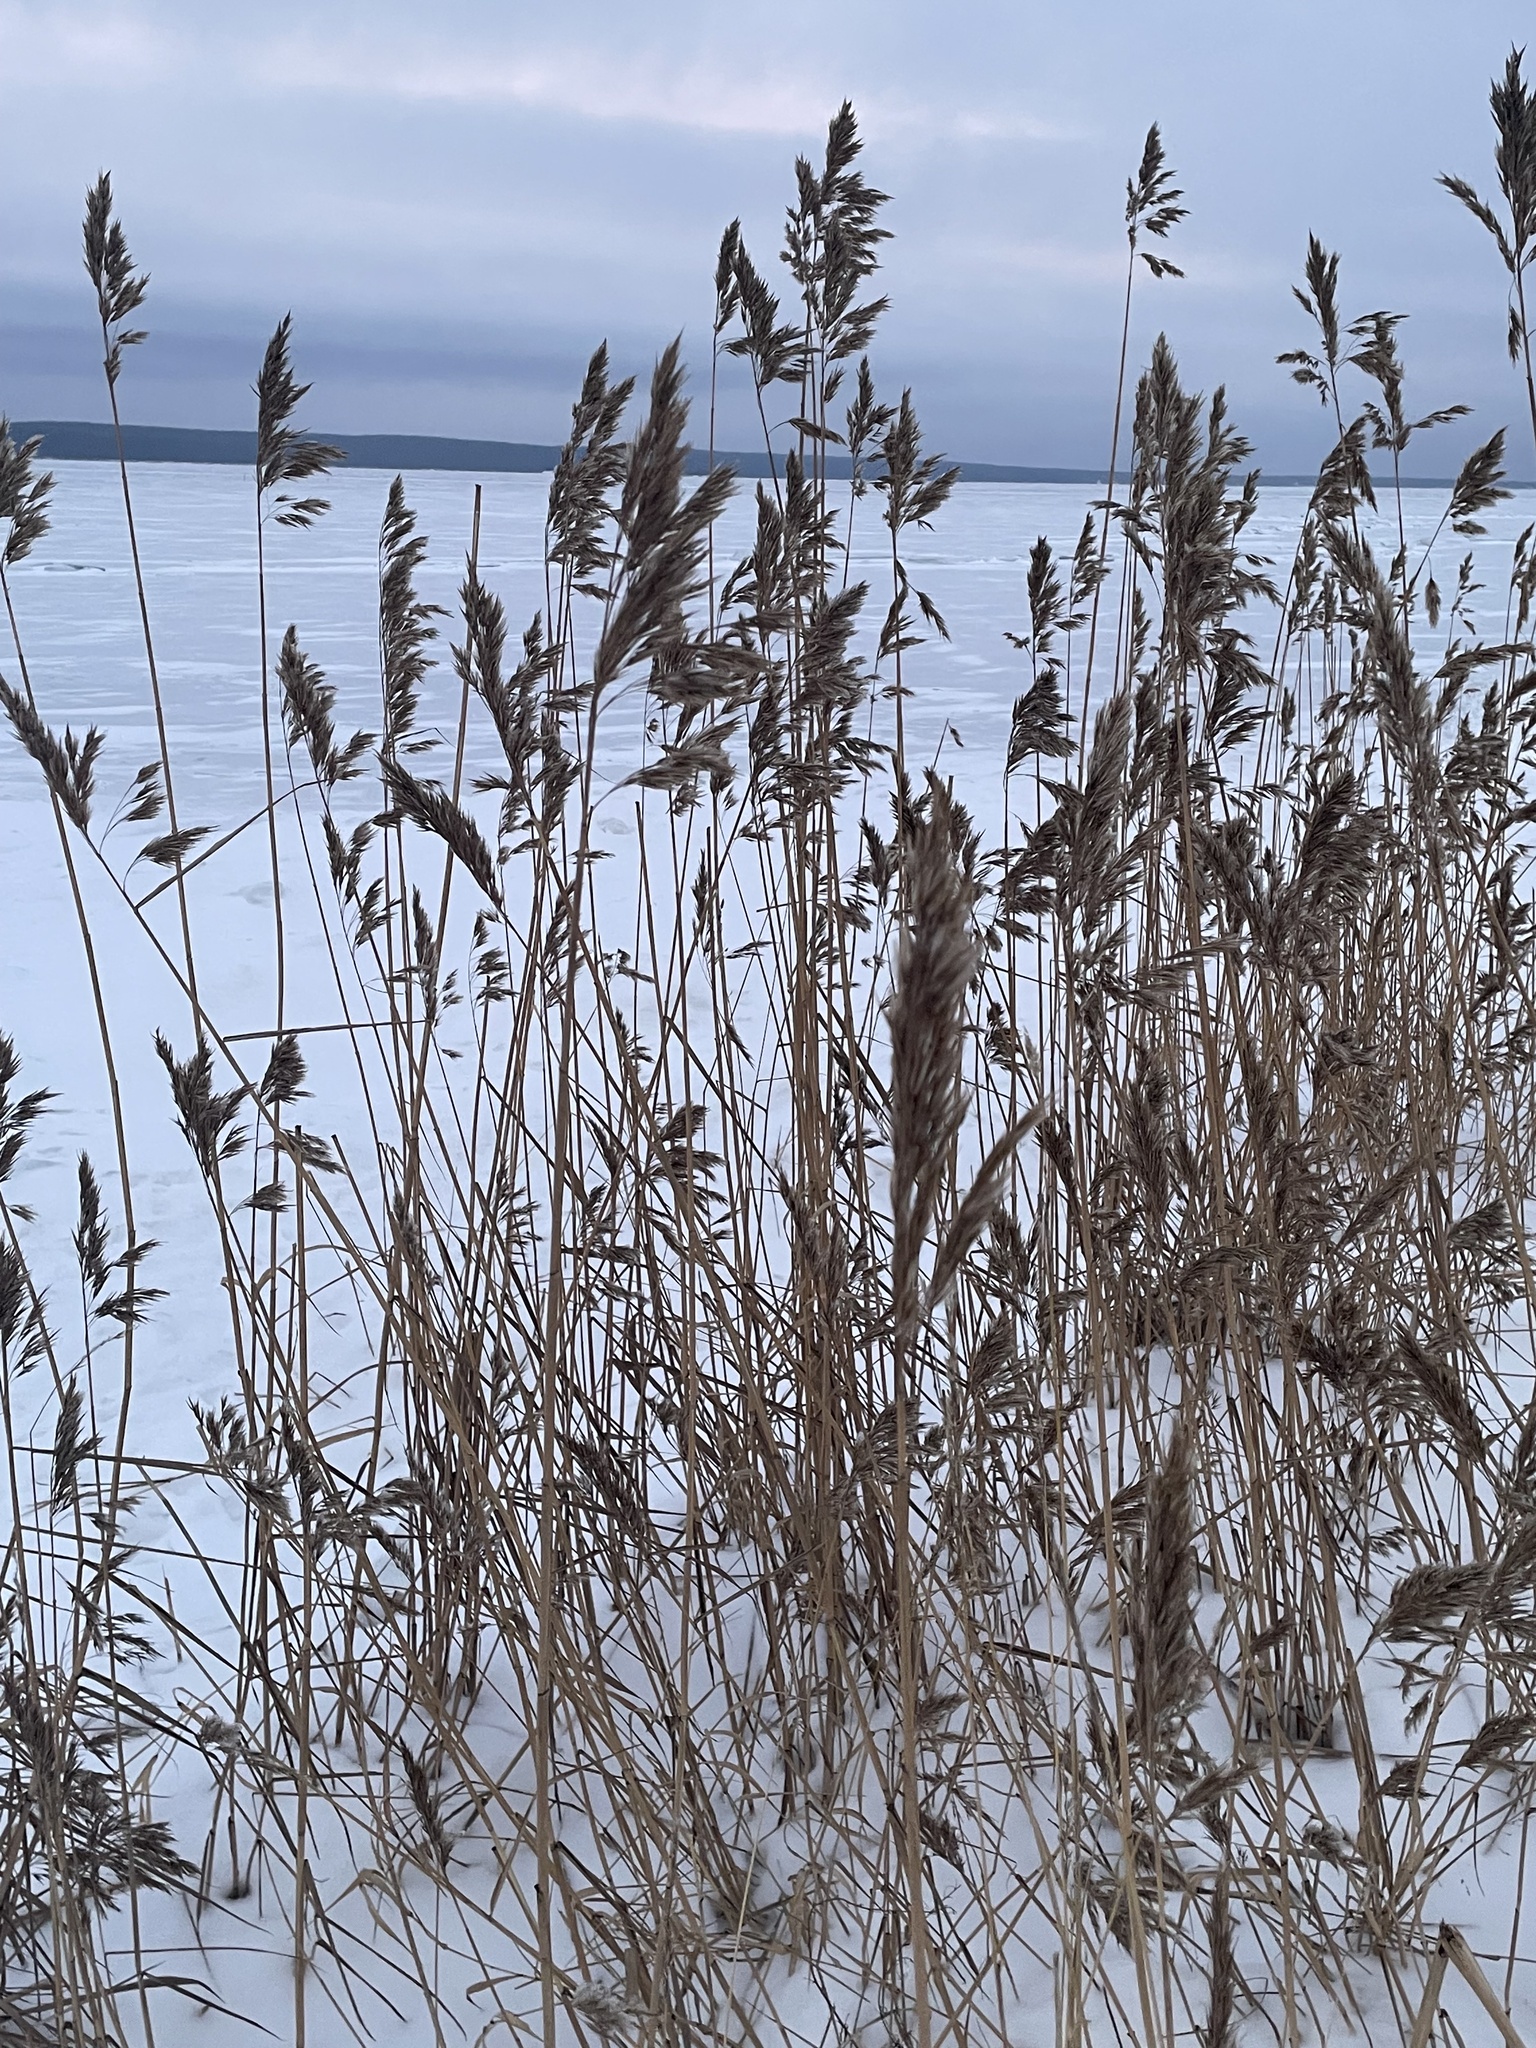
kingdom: Plantae
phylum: Tracheophyta
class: Liliopsida
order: Poales
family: Poaceae
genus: Phragmites
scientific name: Phragmites australis
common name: Common reed
